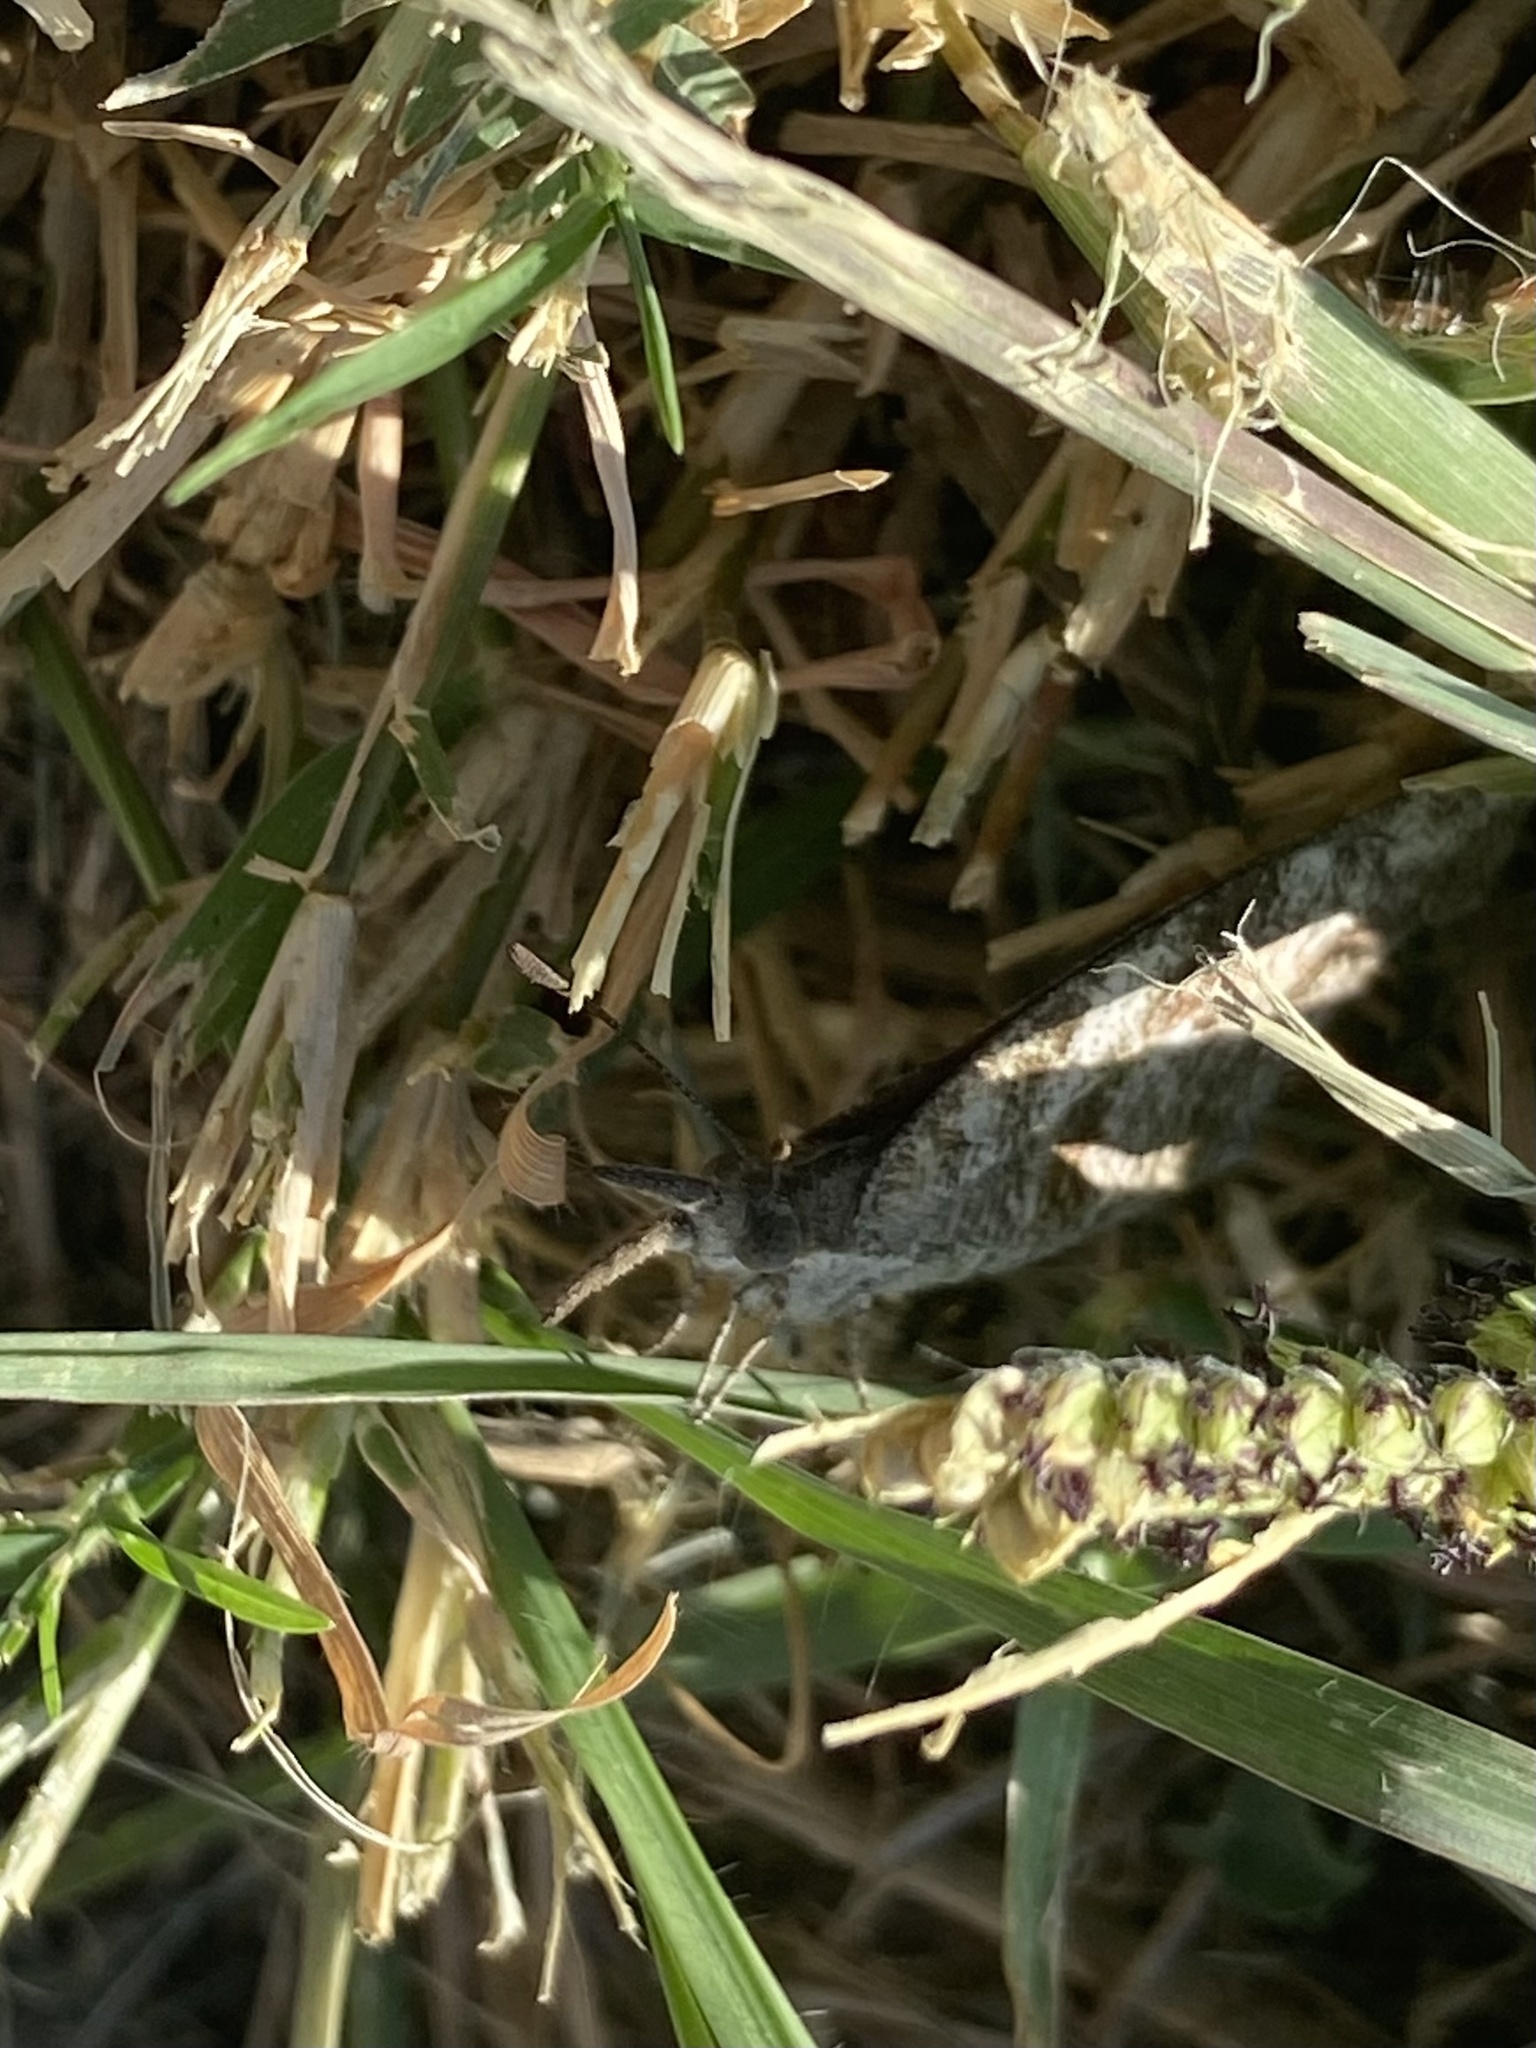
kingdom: Animalia
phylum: Arthropoda
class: Insecta
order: Lepidoptera
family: Nymphalidae
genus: Libytheana
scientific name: Libytheana carinenta
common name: American snout
